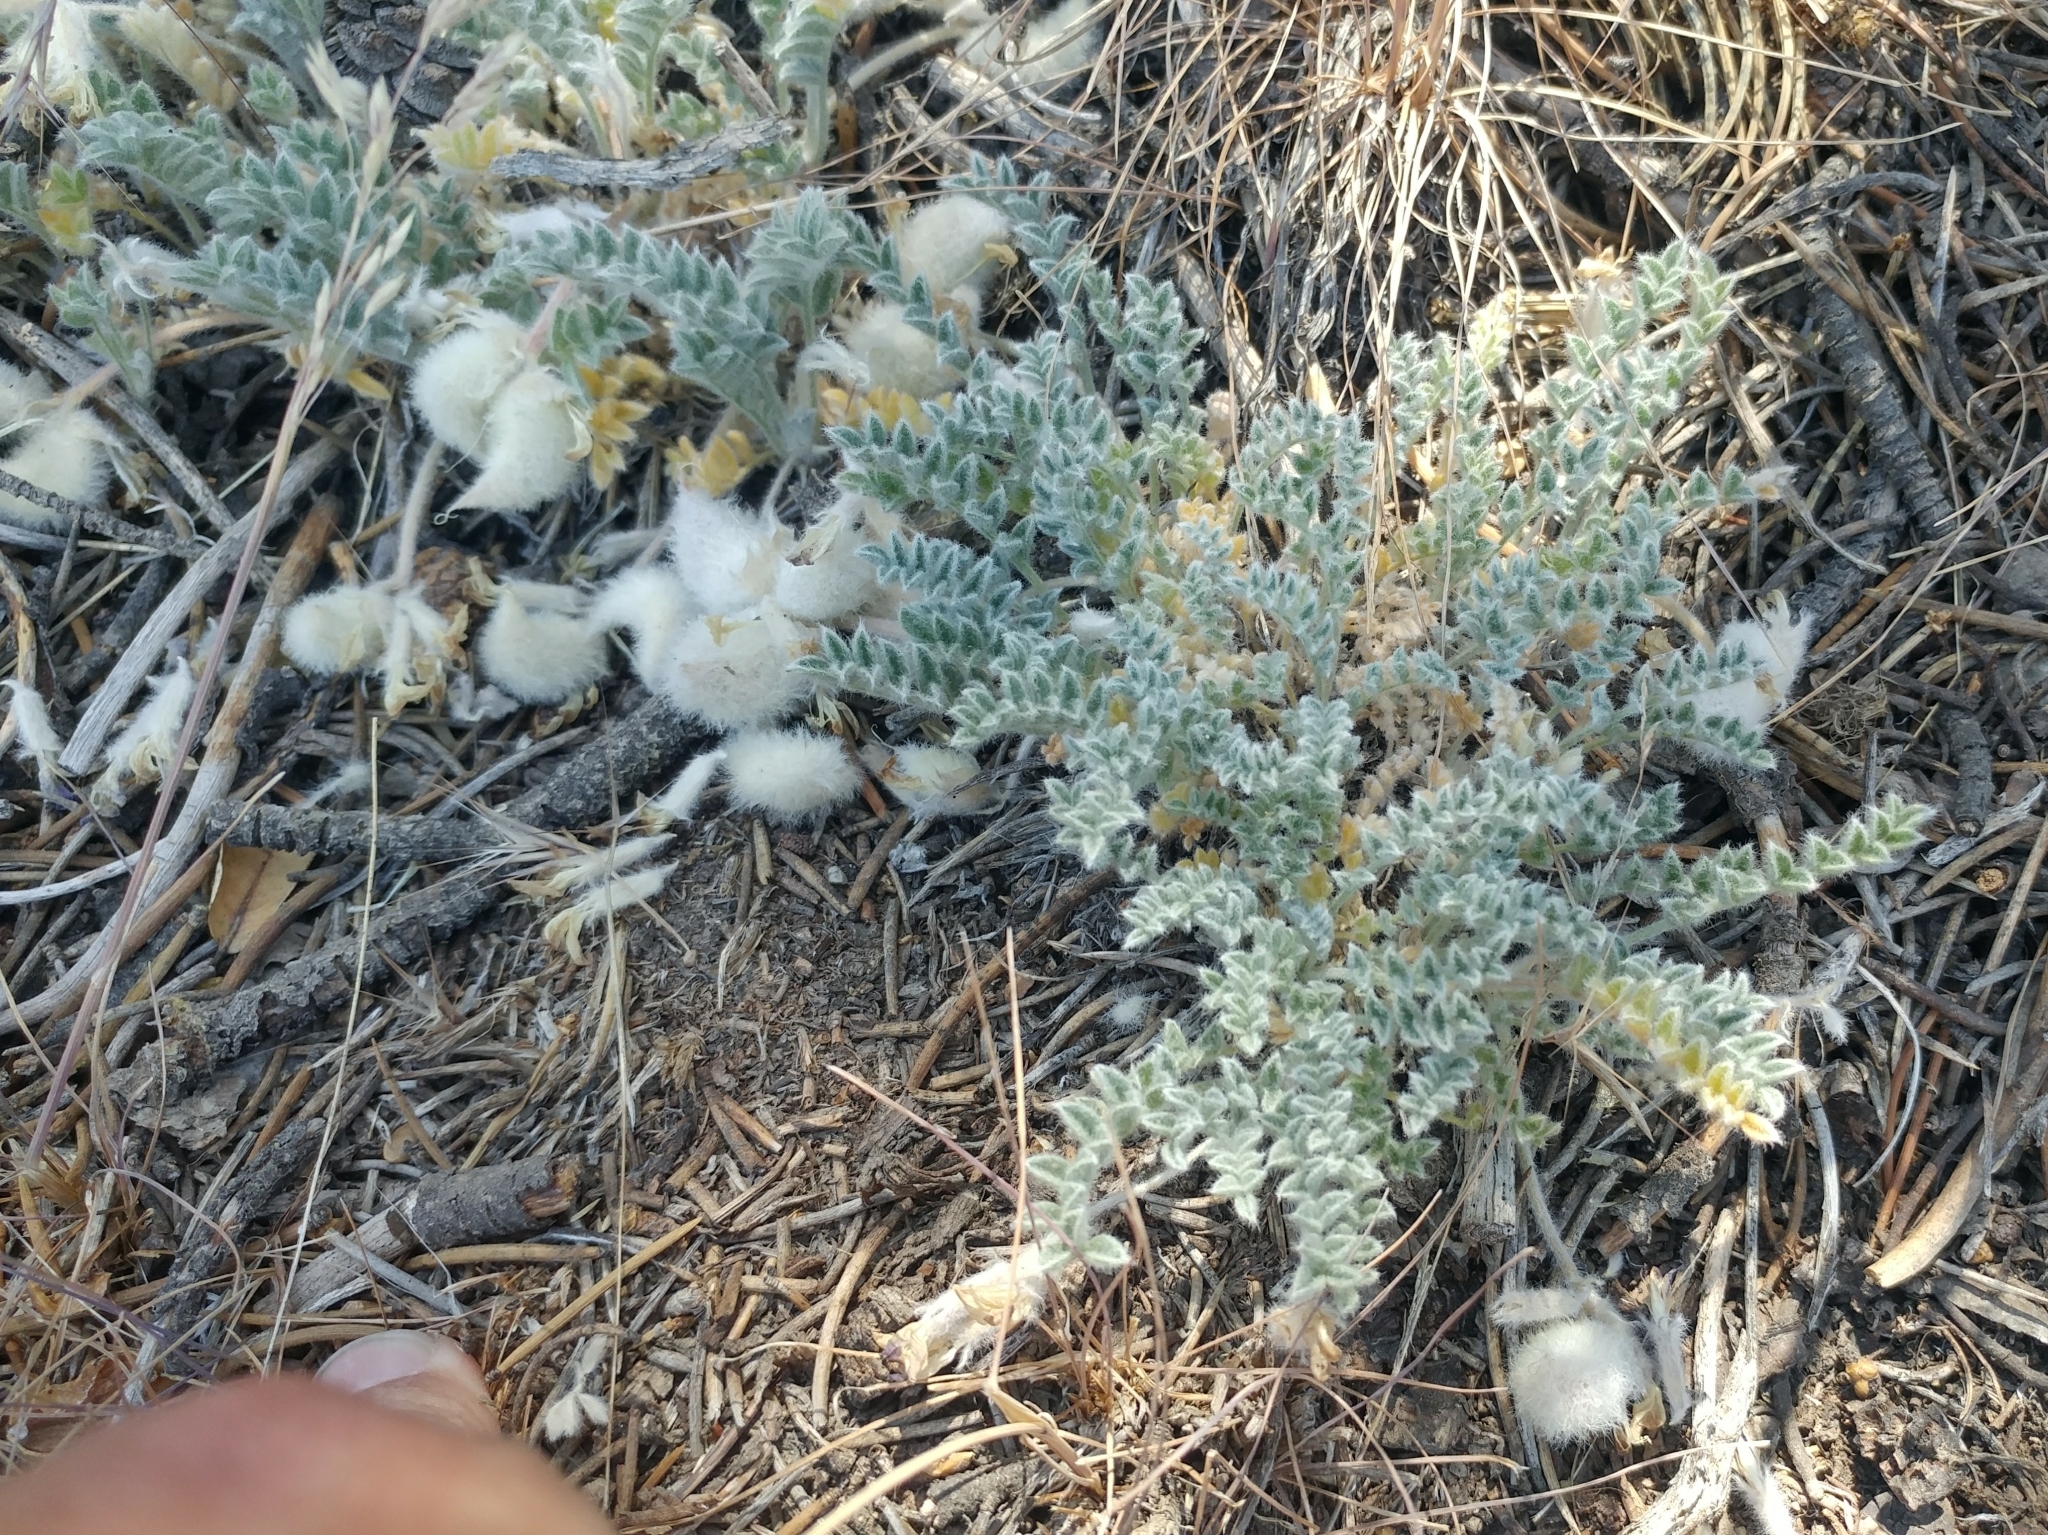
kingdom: Plantae
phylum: Tracheophyta
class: Magnoliopsida
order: Fabales
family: Fabaceae
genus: Astragalus
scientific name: Astragalus purshii
